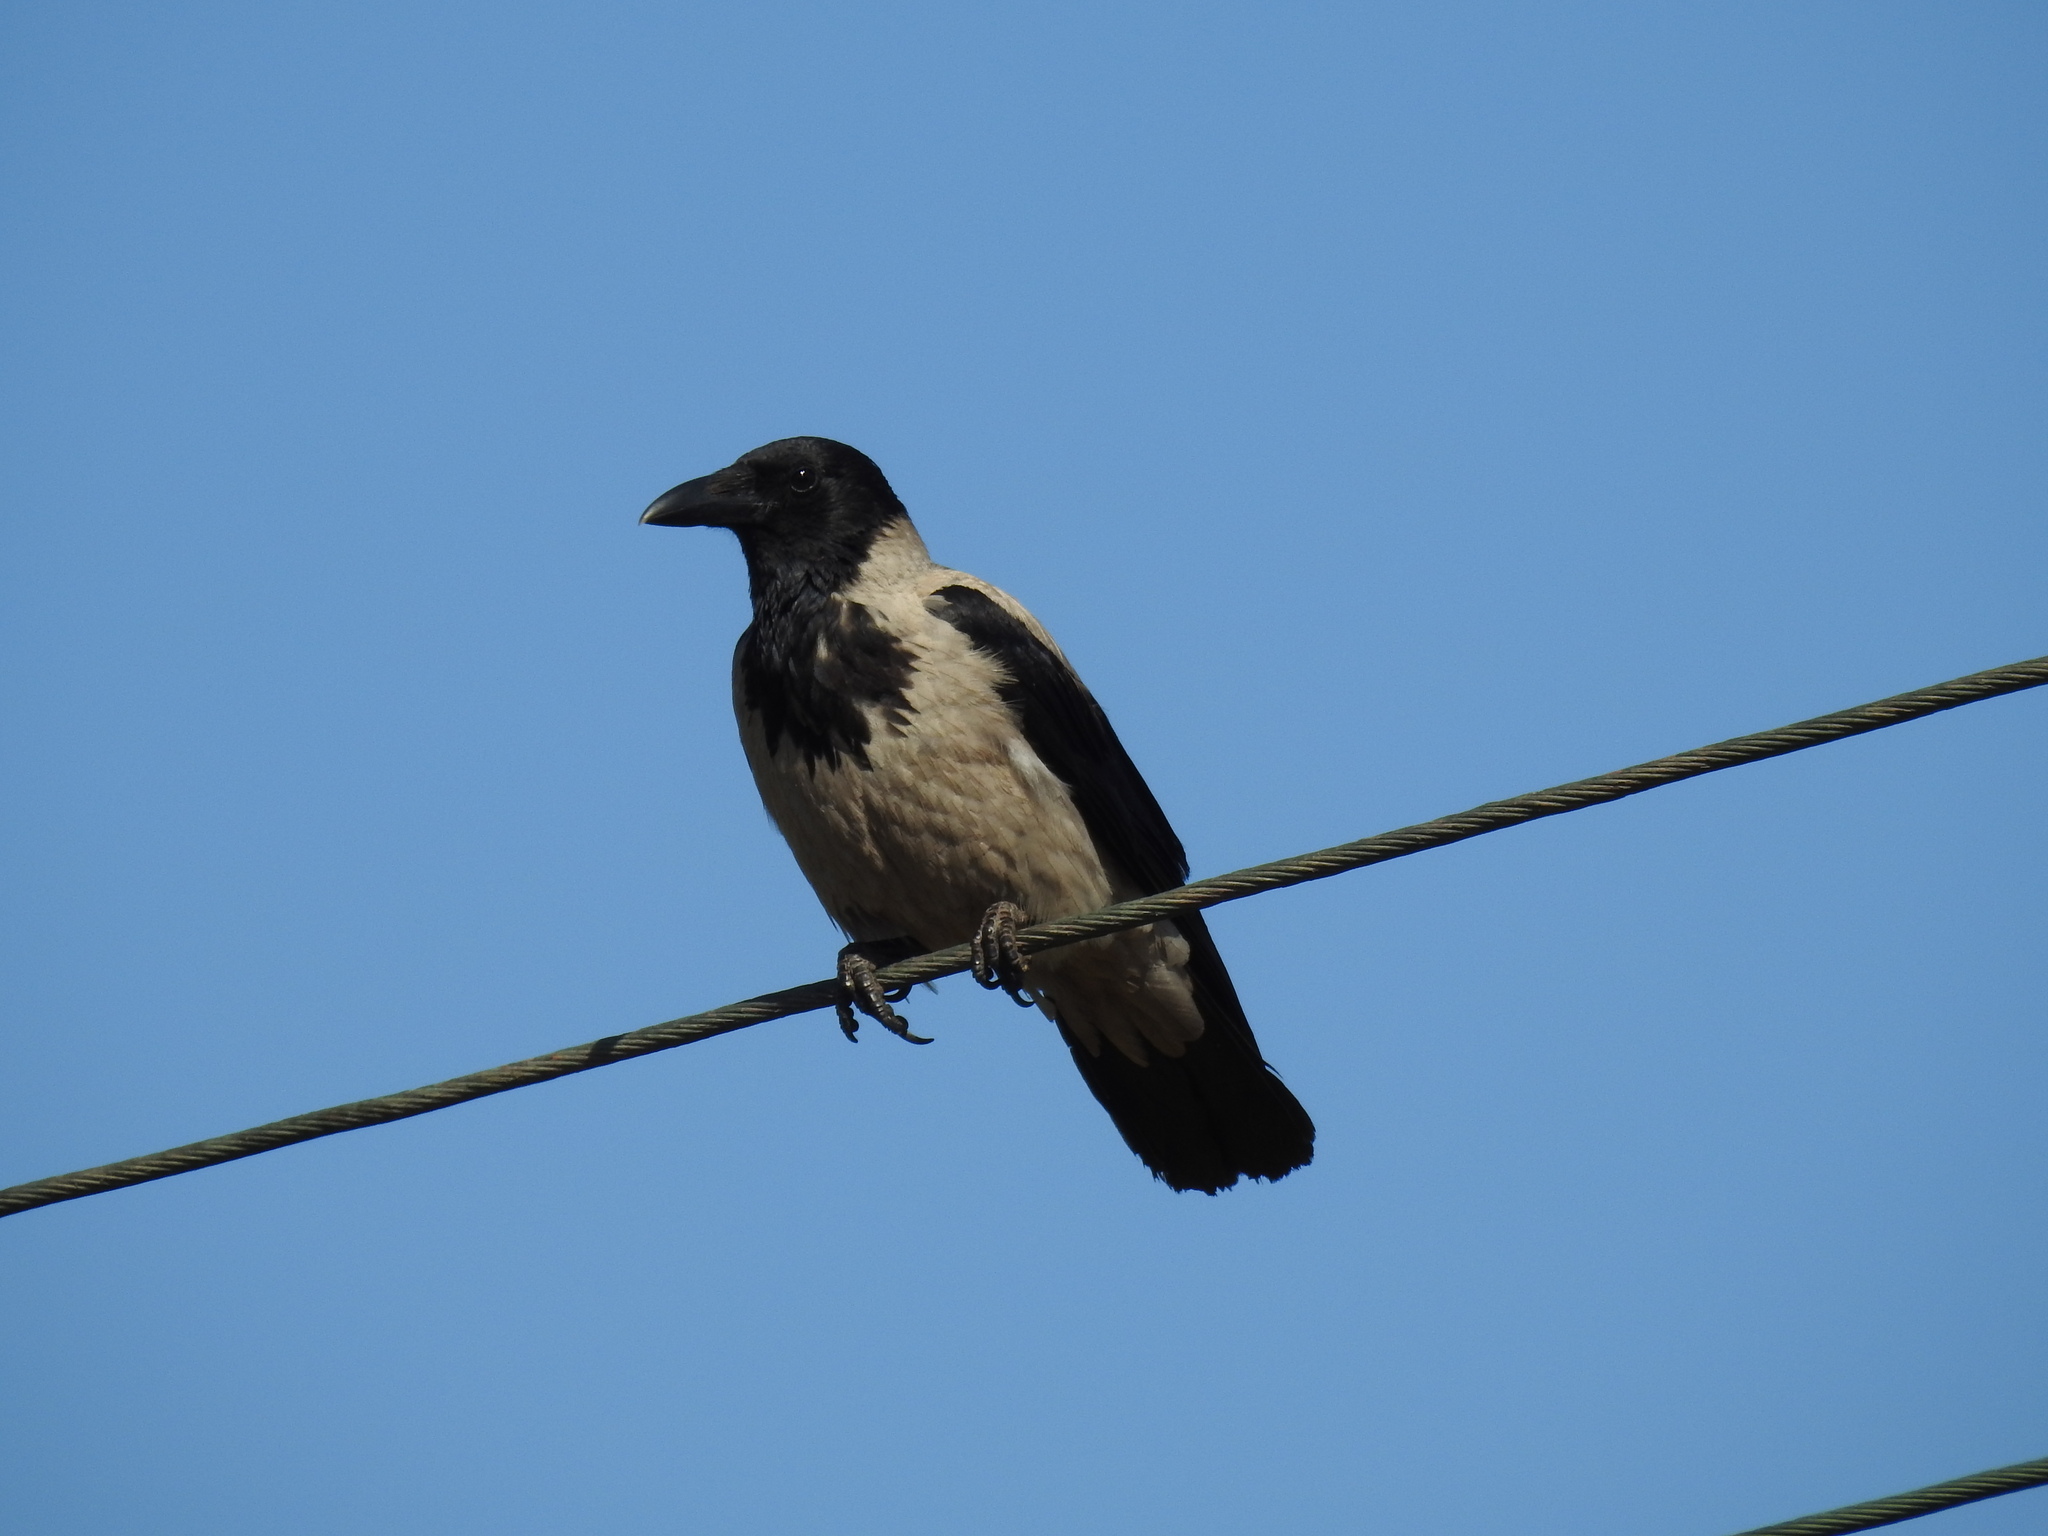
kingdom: Animalia
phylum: Chordata
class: Aves
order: Passeriformes
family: Corvidae
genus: Corvus
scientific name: Corvus cornix
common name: Hooded crow
